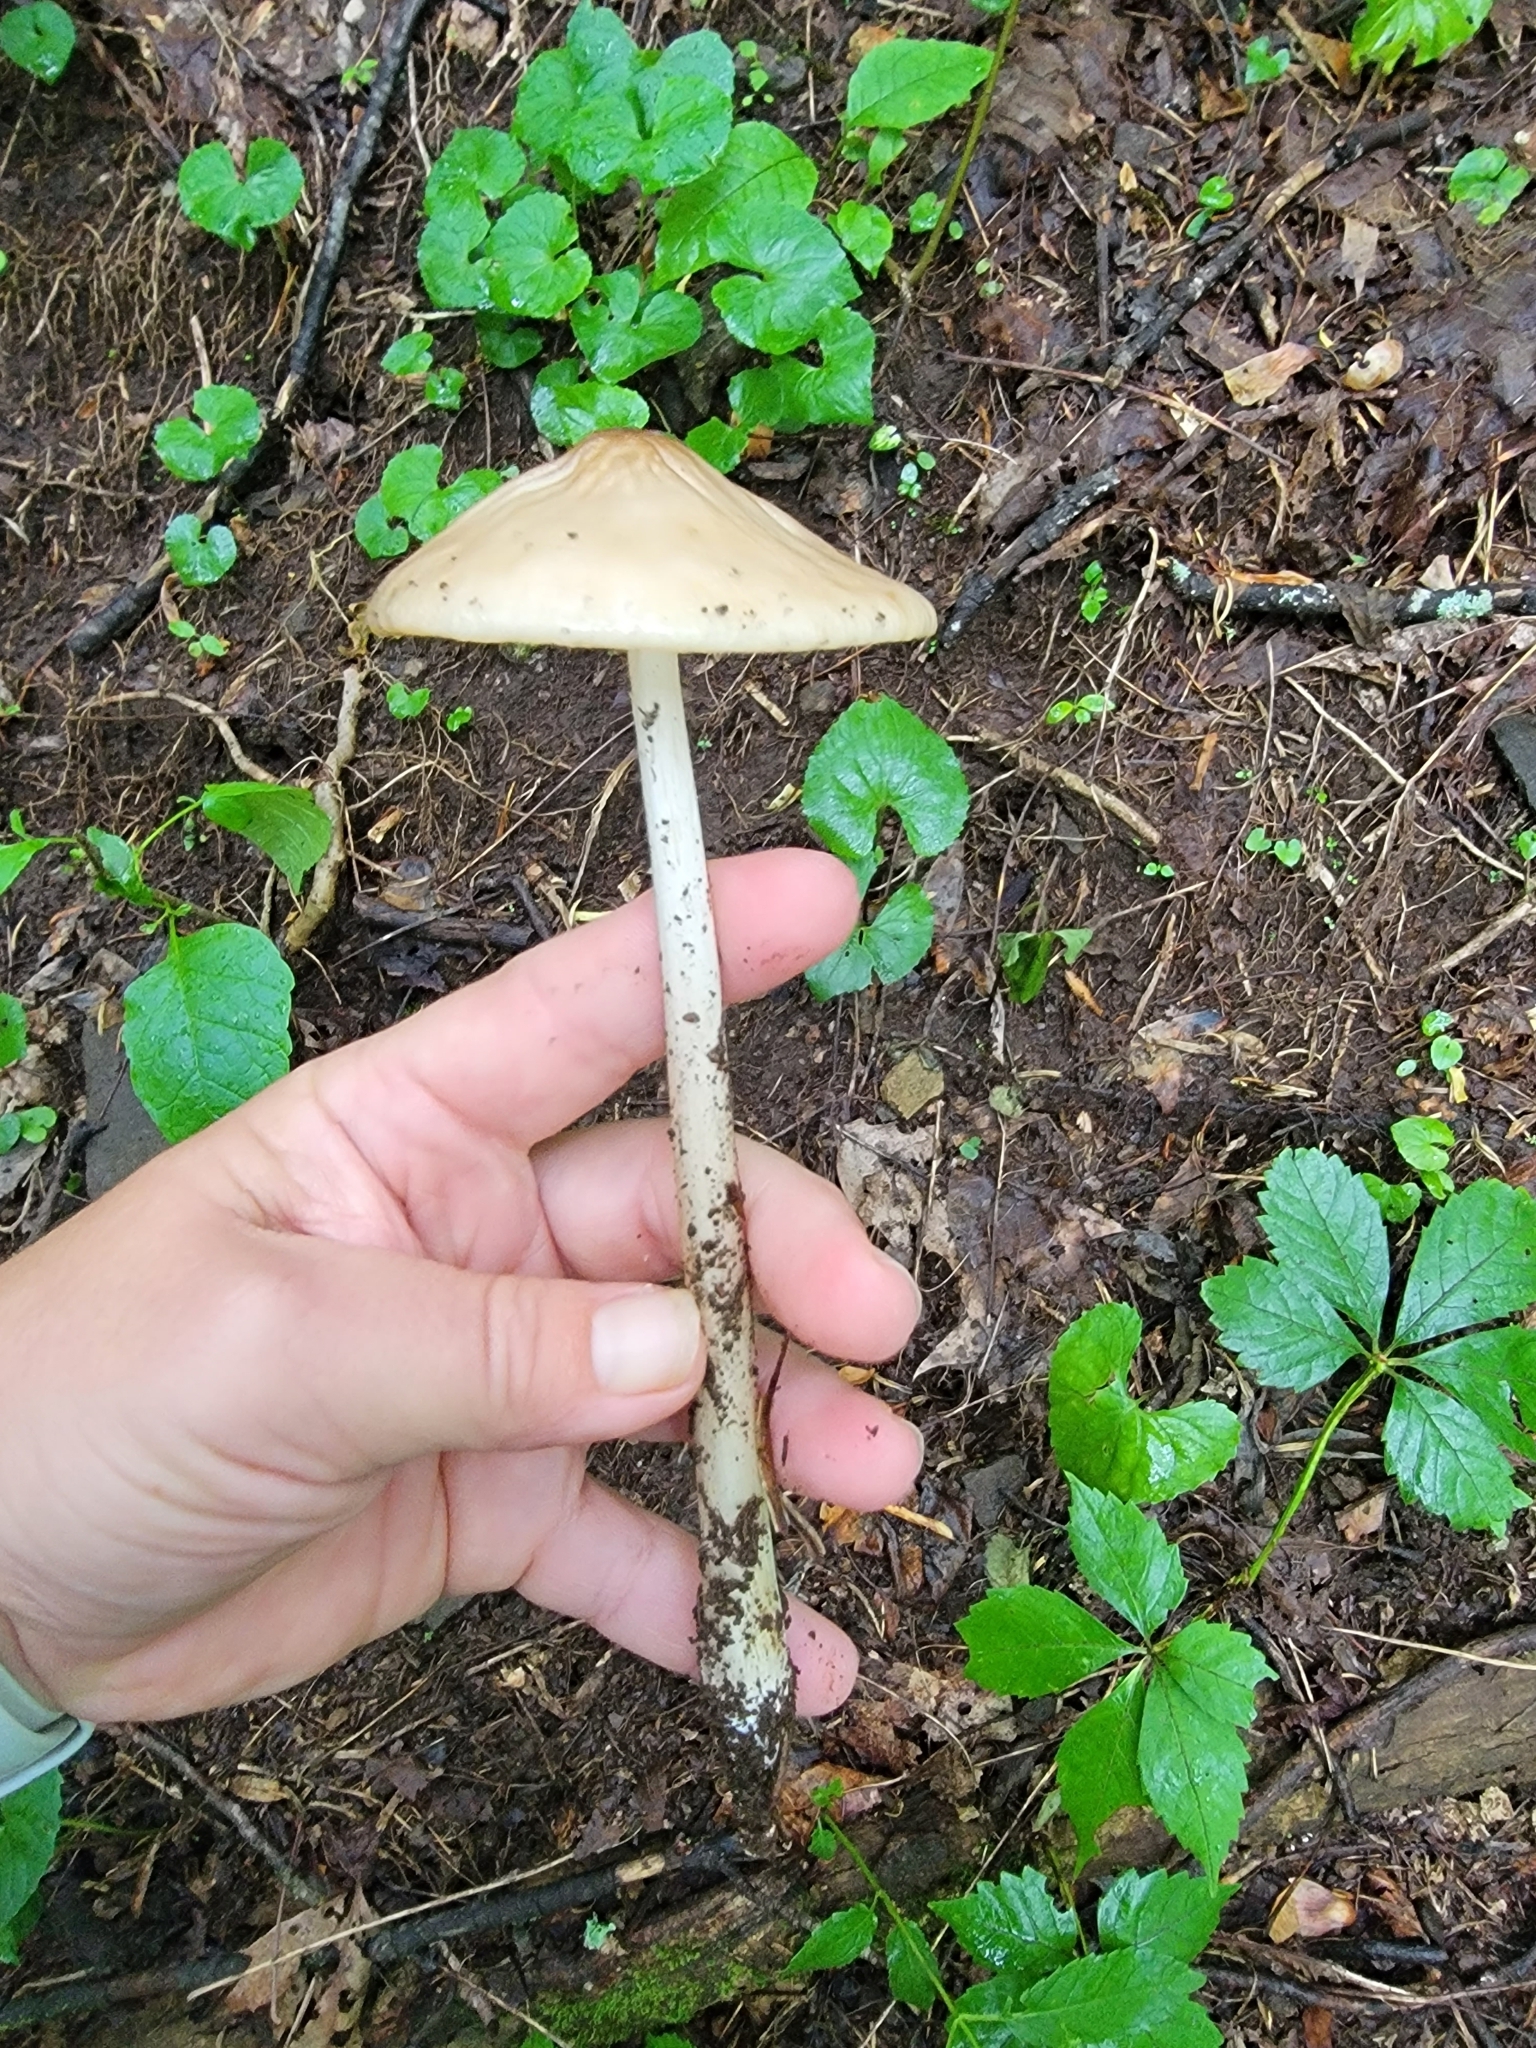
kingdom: Fungi
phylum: Basidiomycota
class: Agaricomycetes
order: Agaricales
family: Physalacriaceae
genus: Hymenopellis
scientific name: Hymenopellis furfuracea
